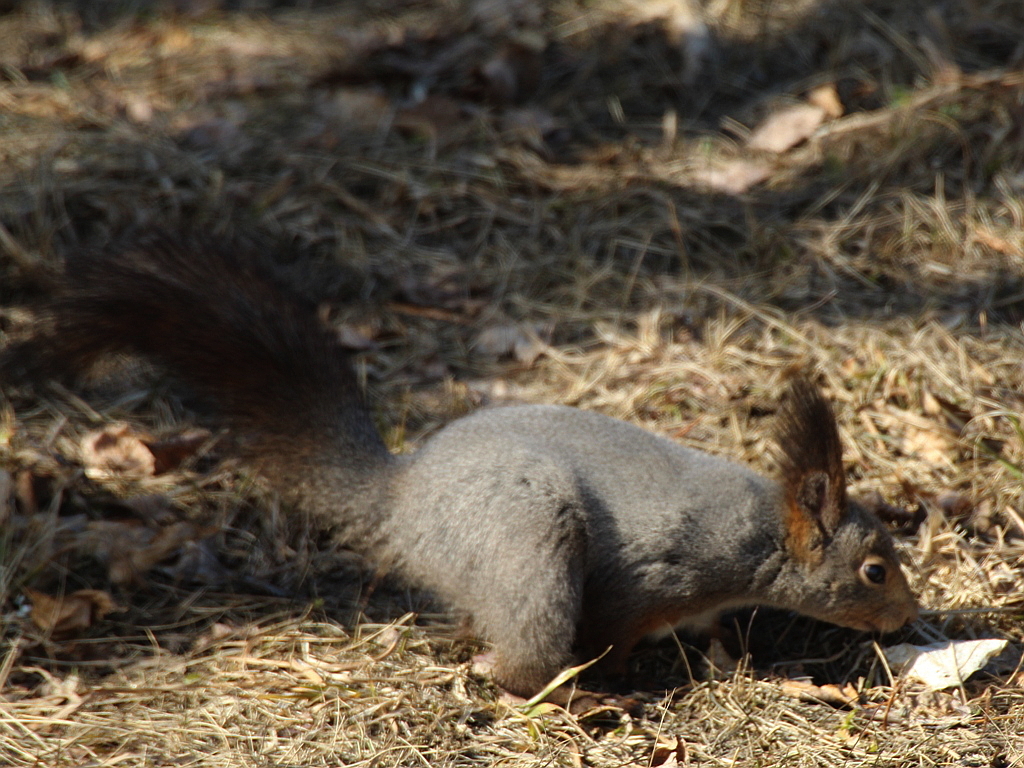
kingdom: Animalia
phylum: Chordata
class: Mammalia
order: Rodentia
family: Sciuridae
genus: Sciurus
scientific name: Sciurus vulgaris
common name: Eurasian red squirrel
